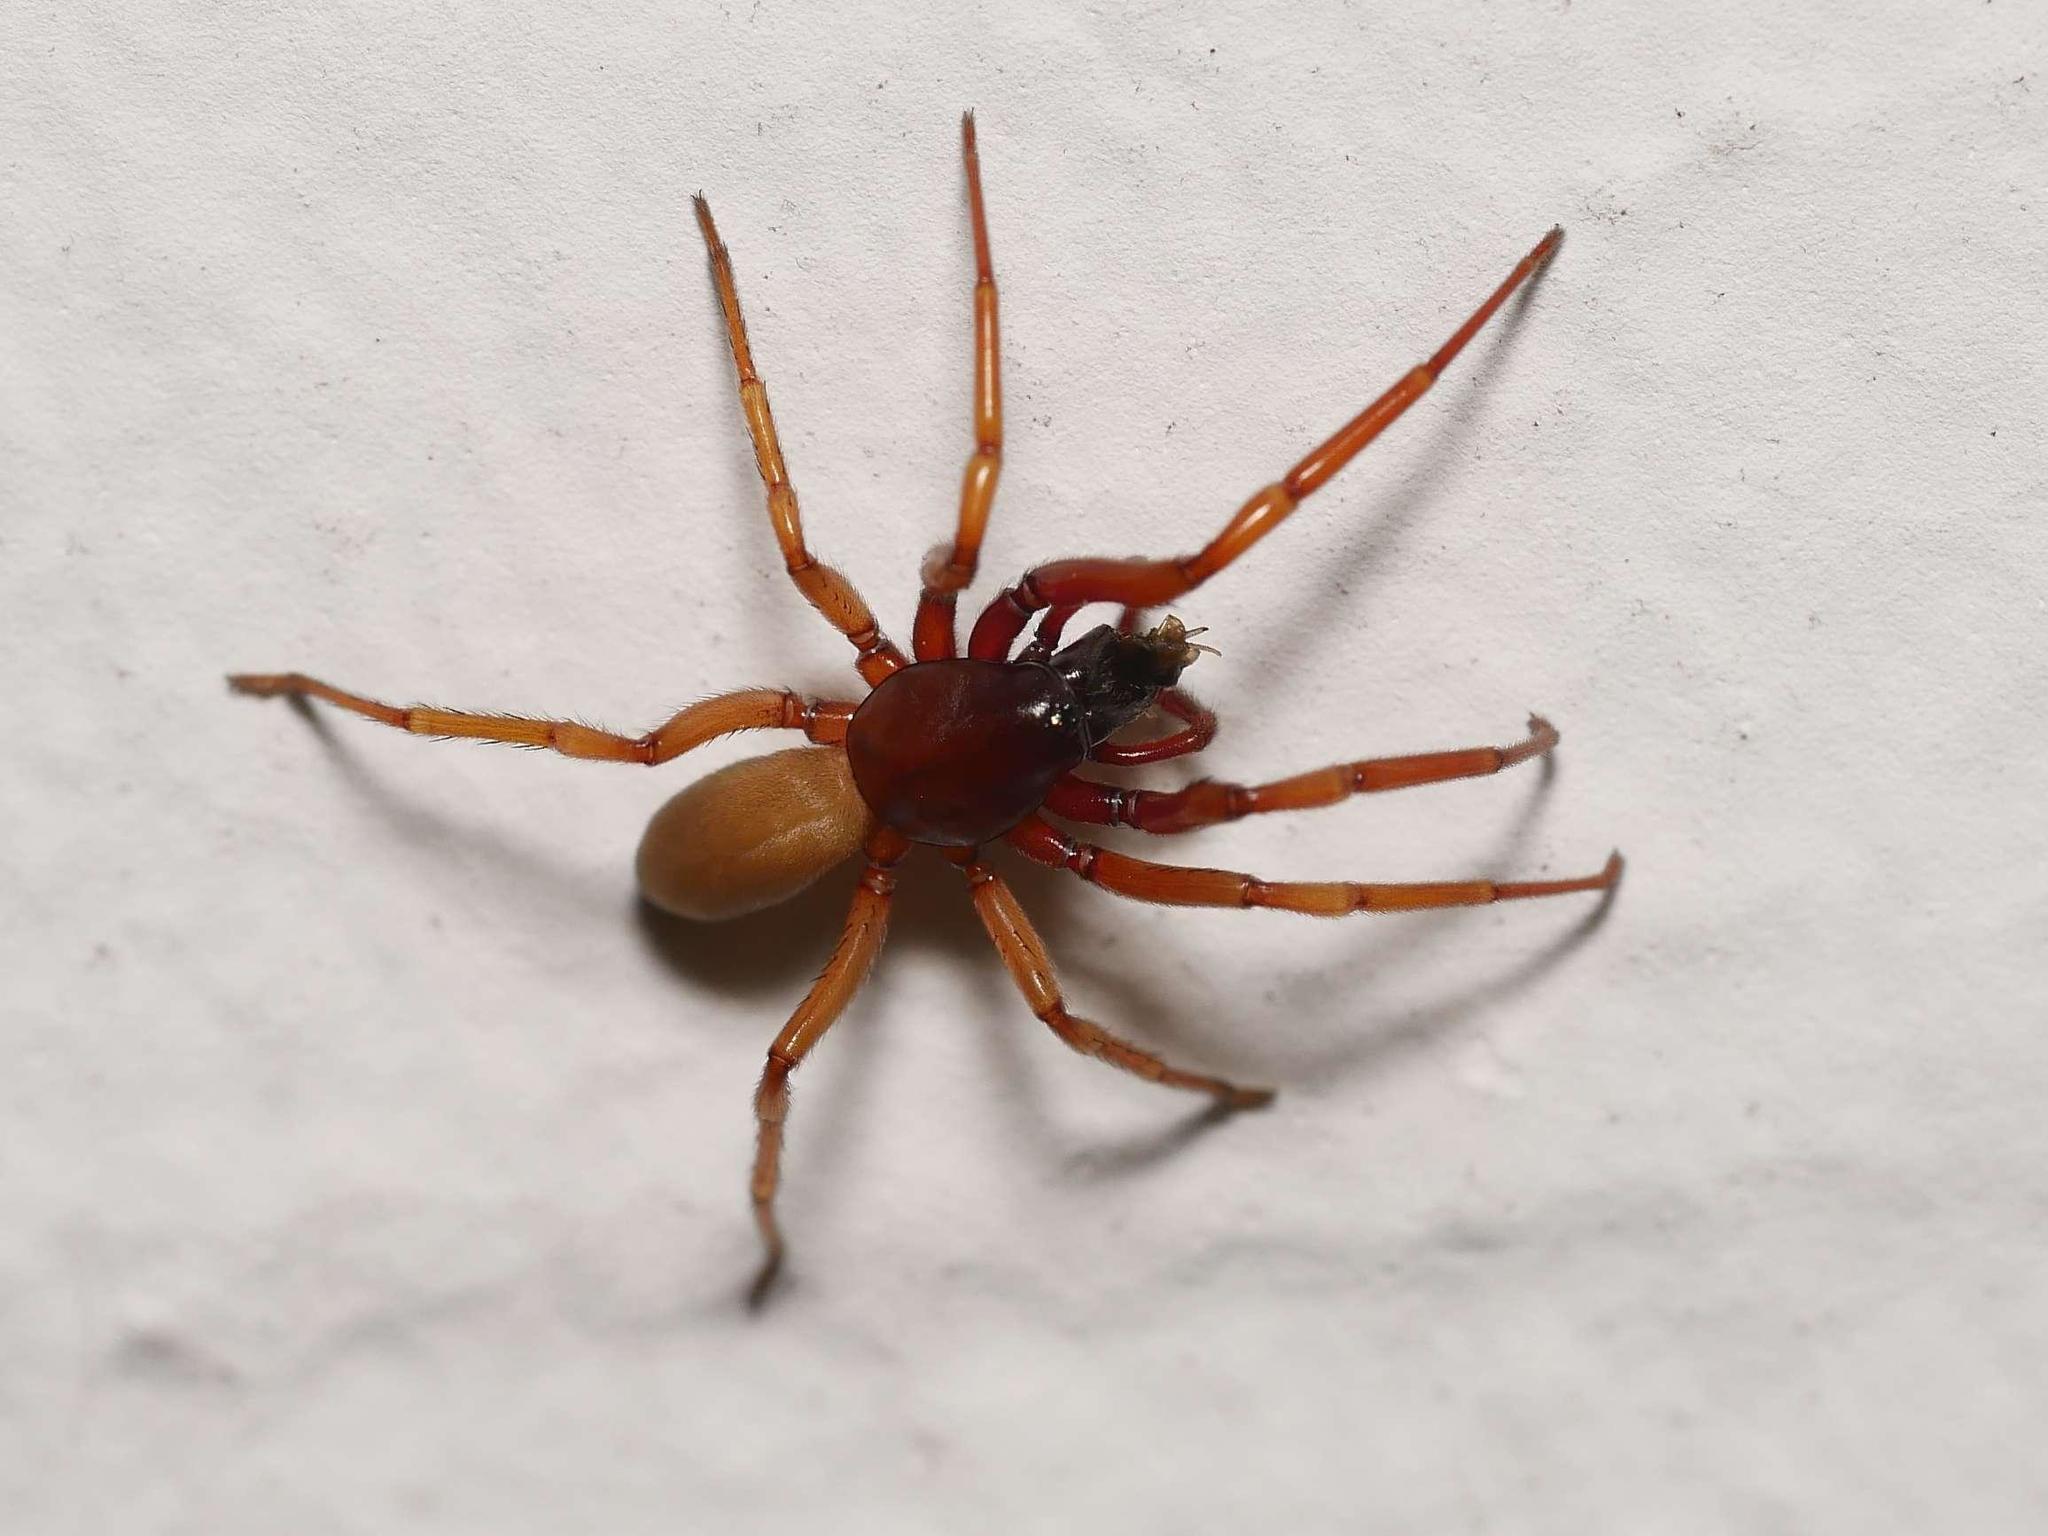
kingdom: Animalia
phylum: Arthropoda
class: Arachnida
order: Araneae
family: Dysderidae
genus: Harpactea
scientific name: Harpactea rubicunda
